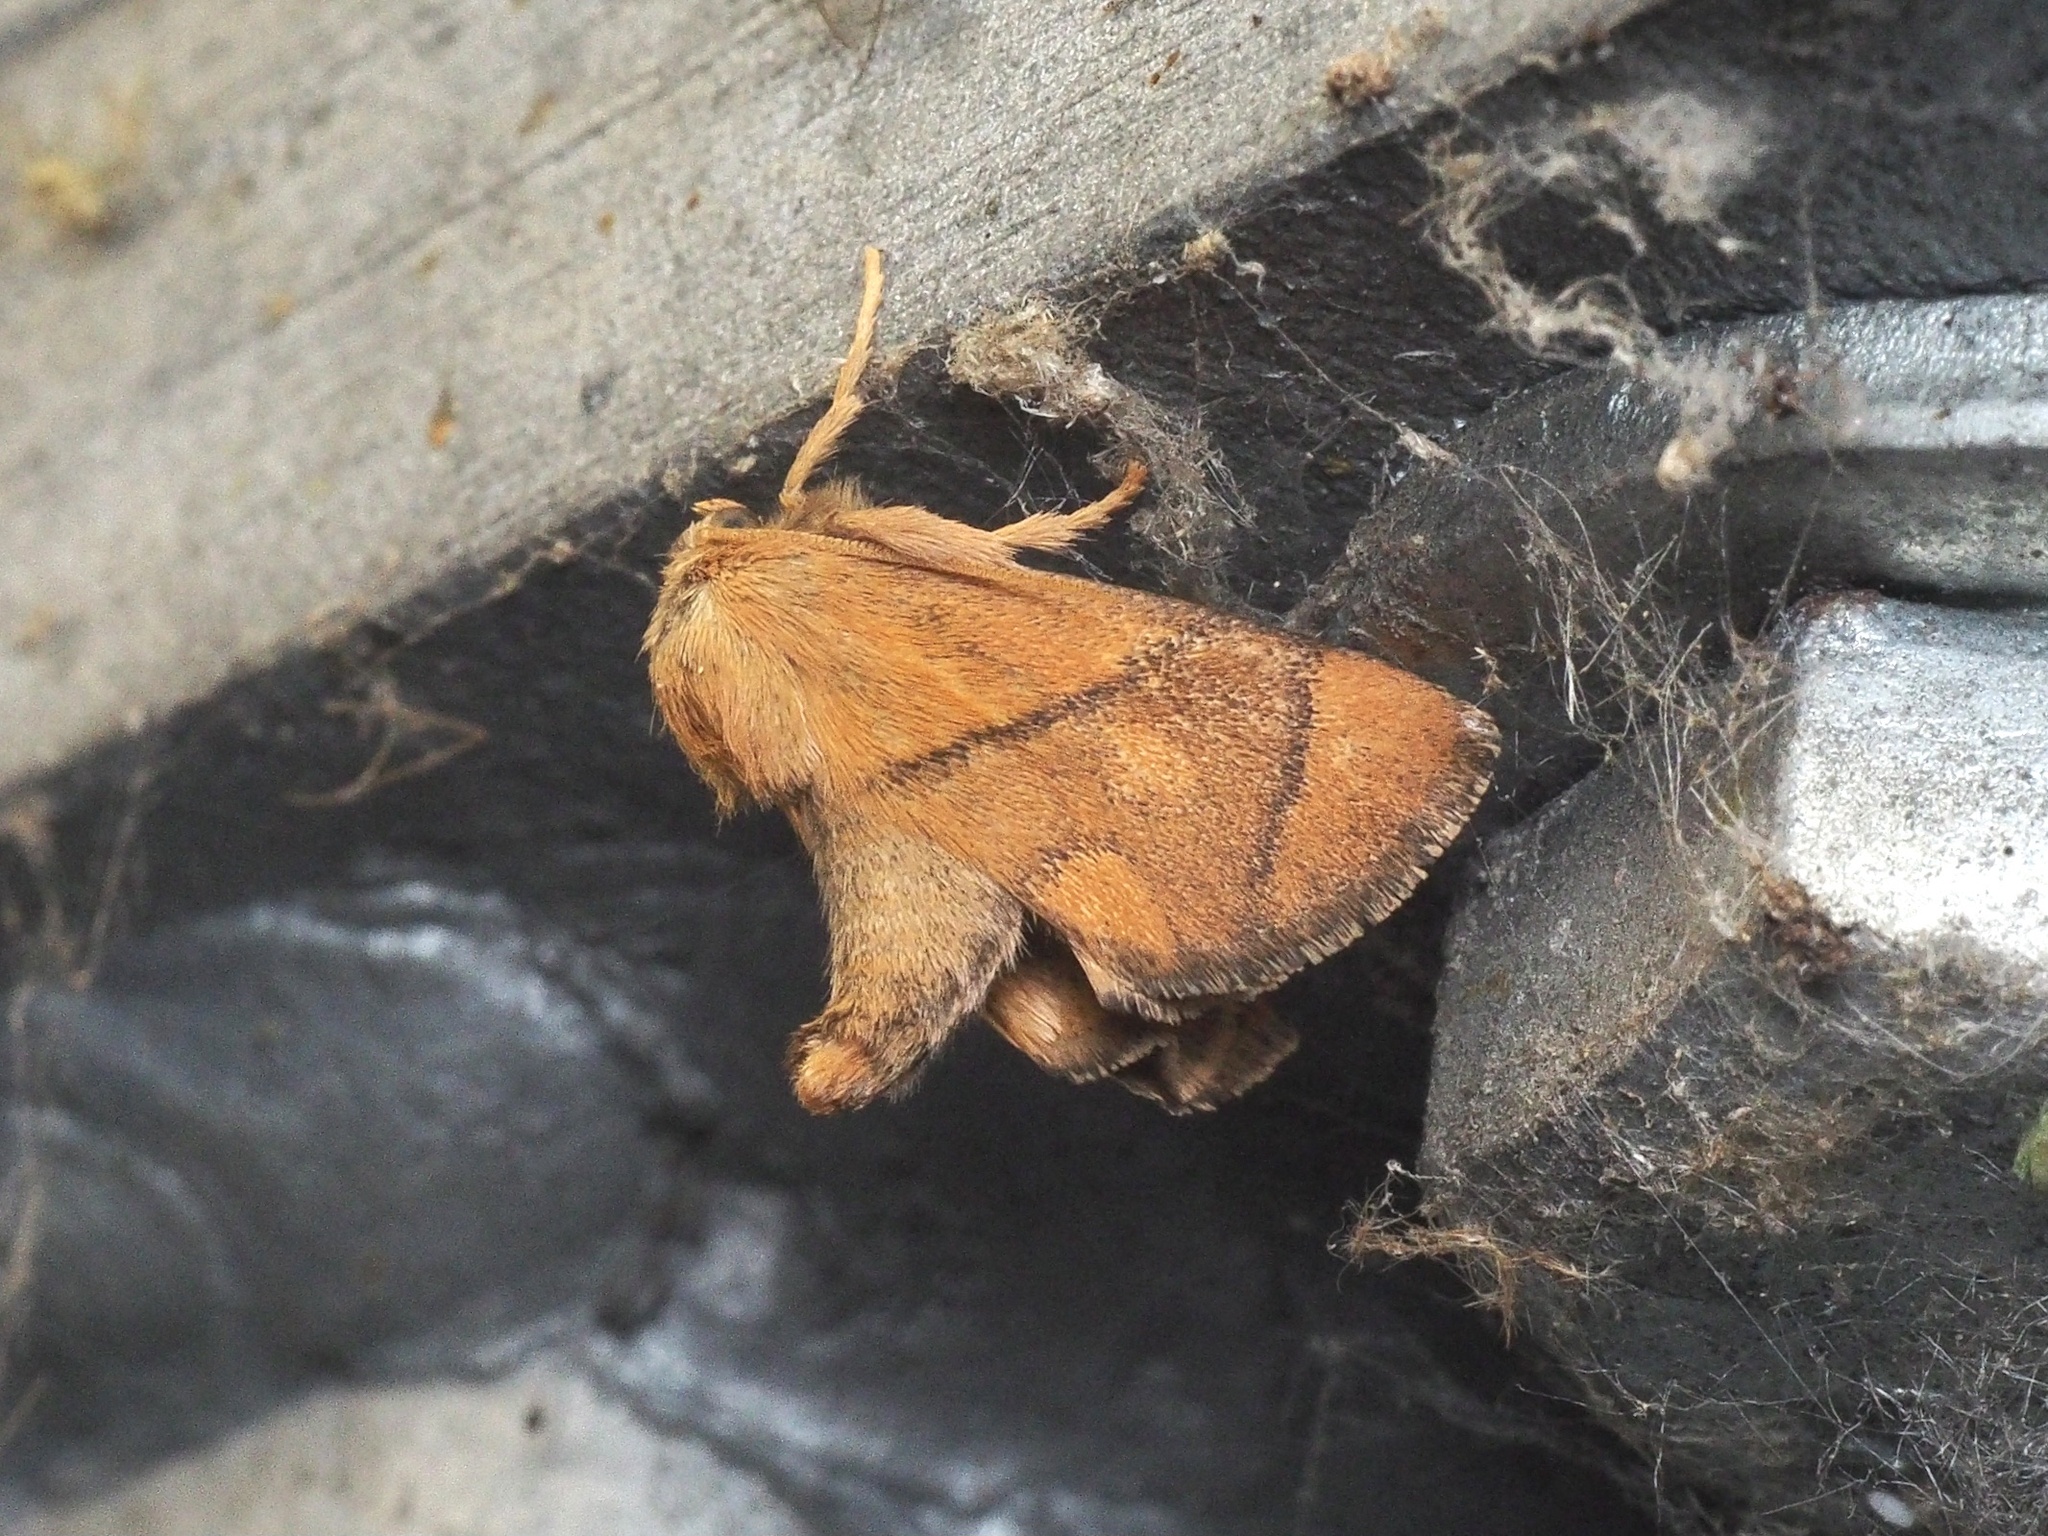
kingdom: Animalia
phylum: Arthropoda
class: Insecta
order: Lepidoptera
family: Limacodidae
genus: Apoda
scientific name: Apoda limacodes
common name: Festoon
